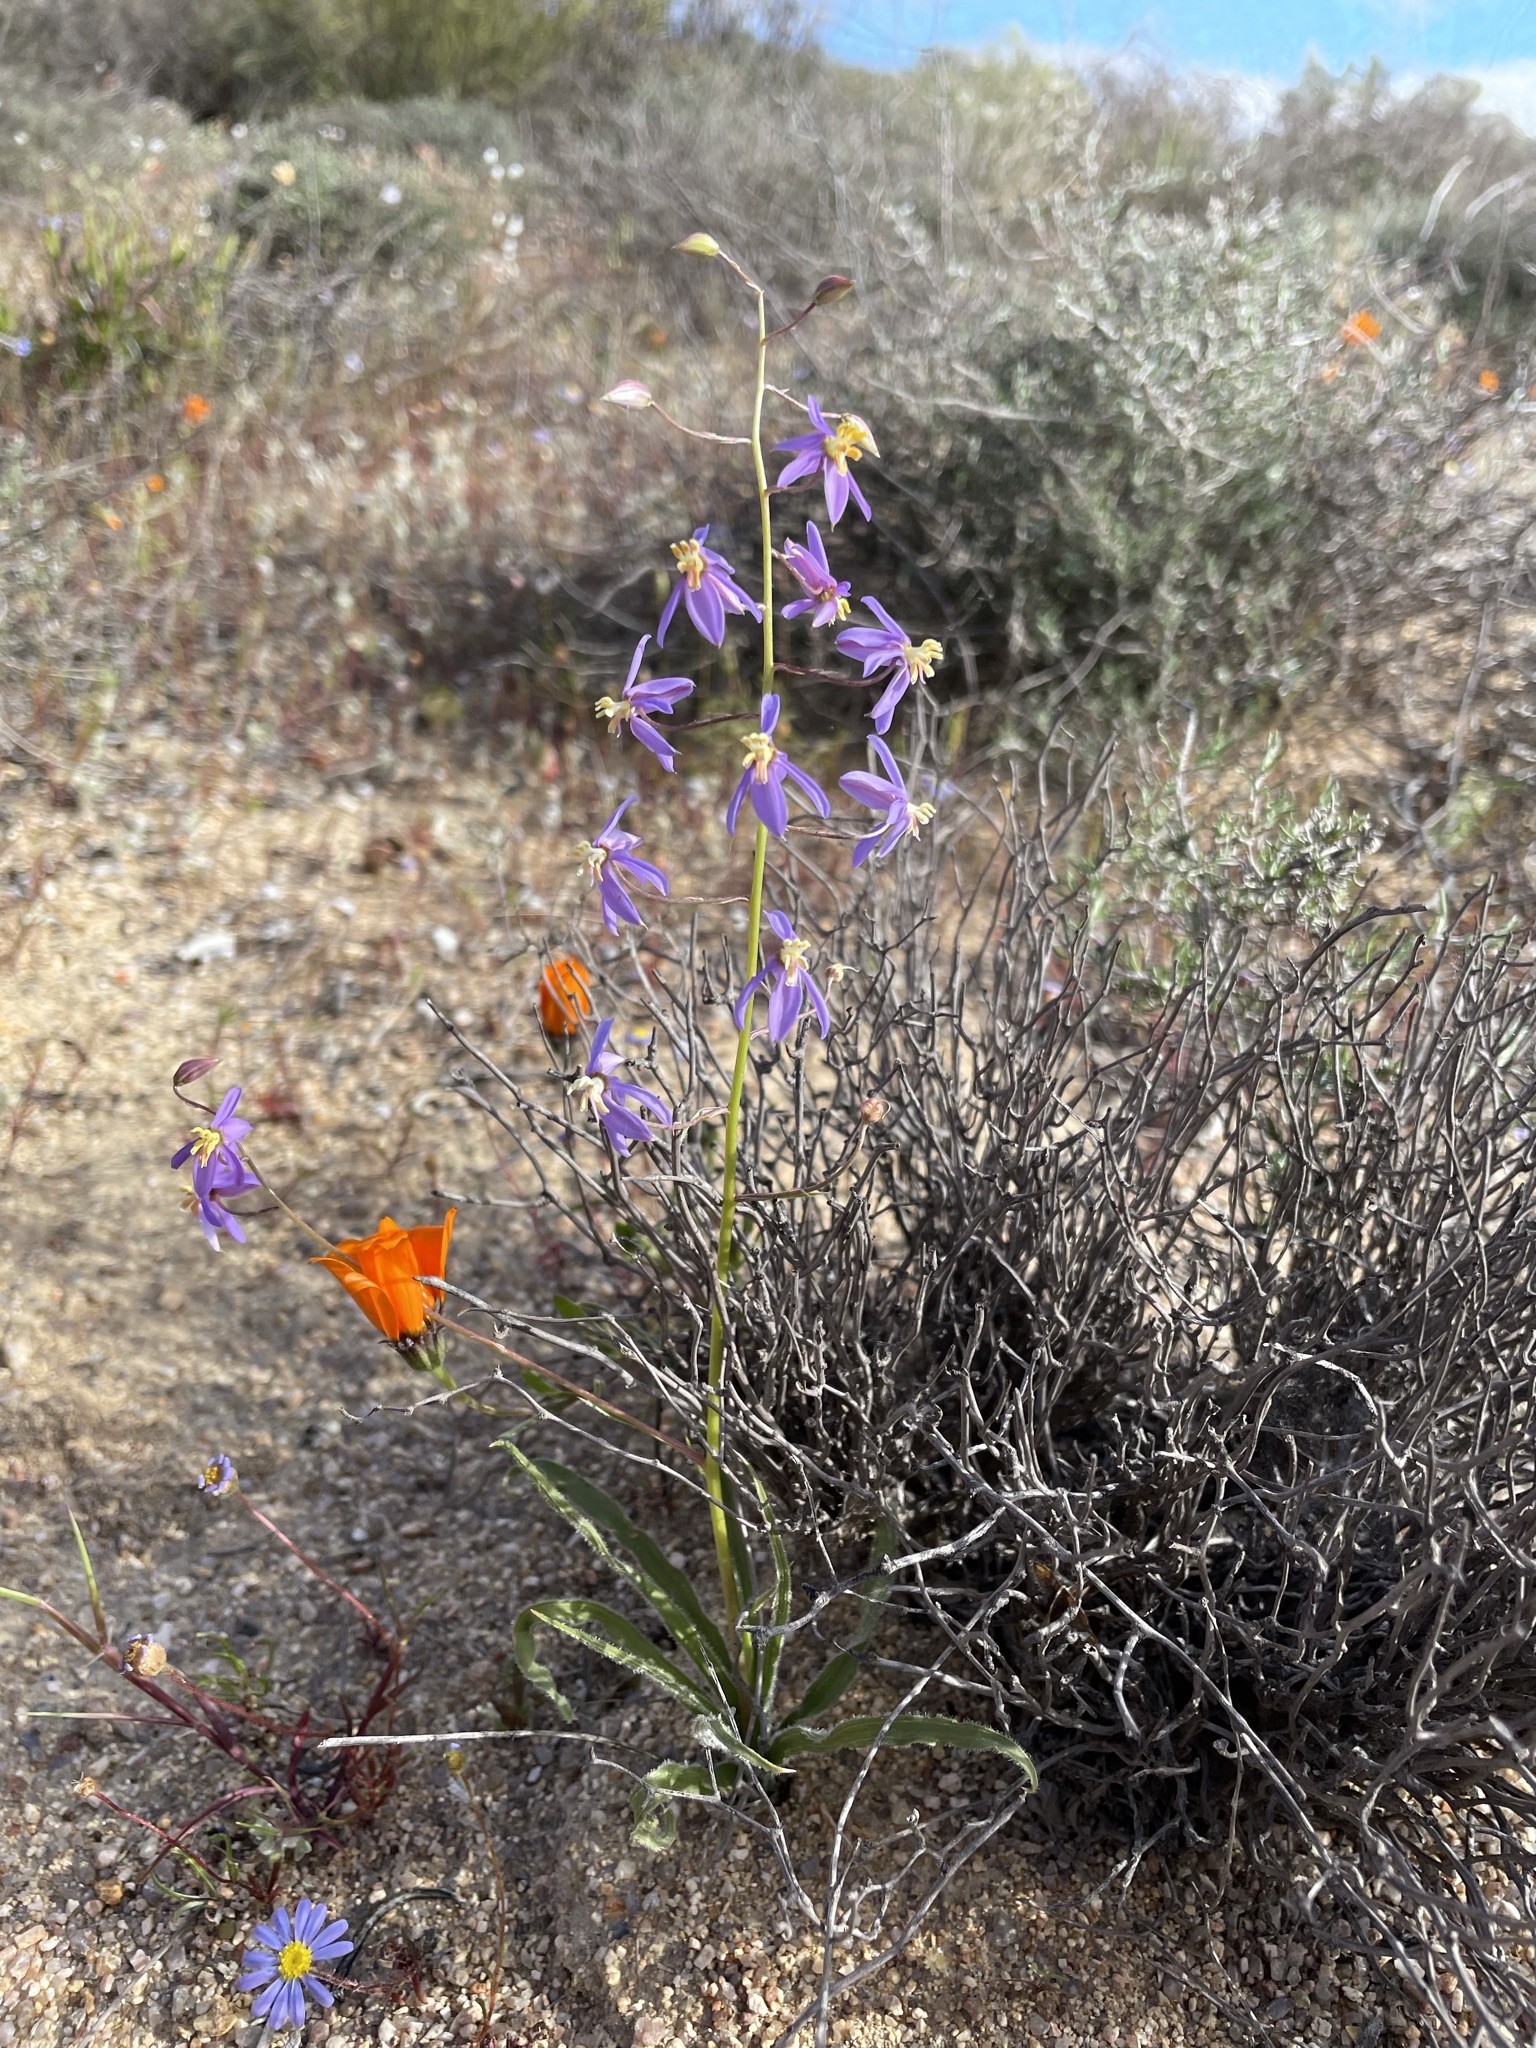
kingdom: Plantae
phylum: Tracheophyta
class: Liliopsida
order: Asparagales
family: Tecophilaeaceae
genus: Cyanella
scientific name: Cyanella hyacinthoides
